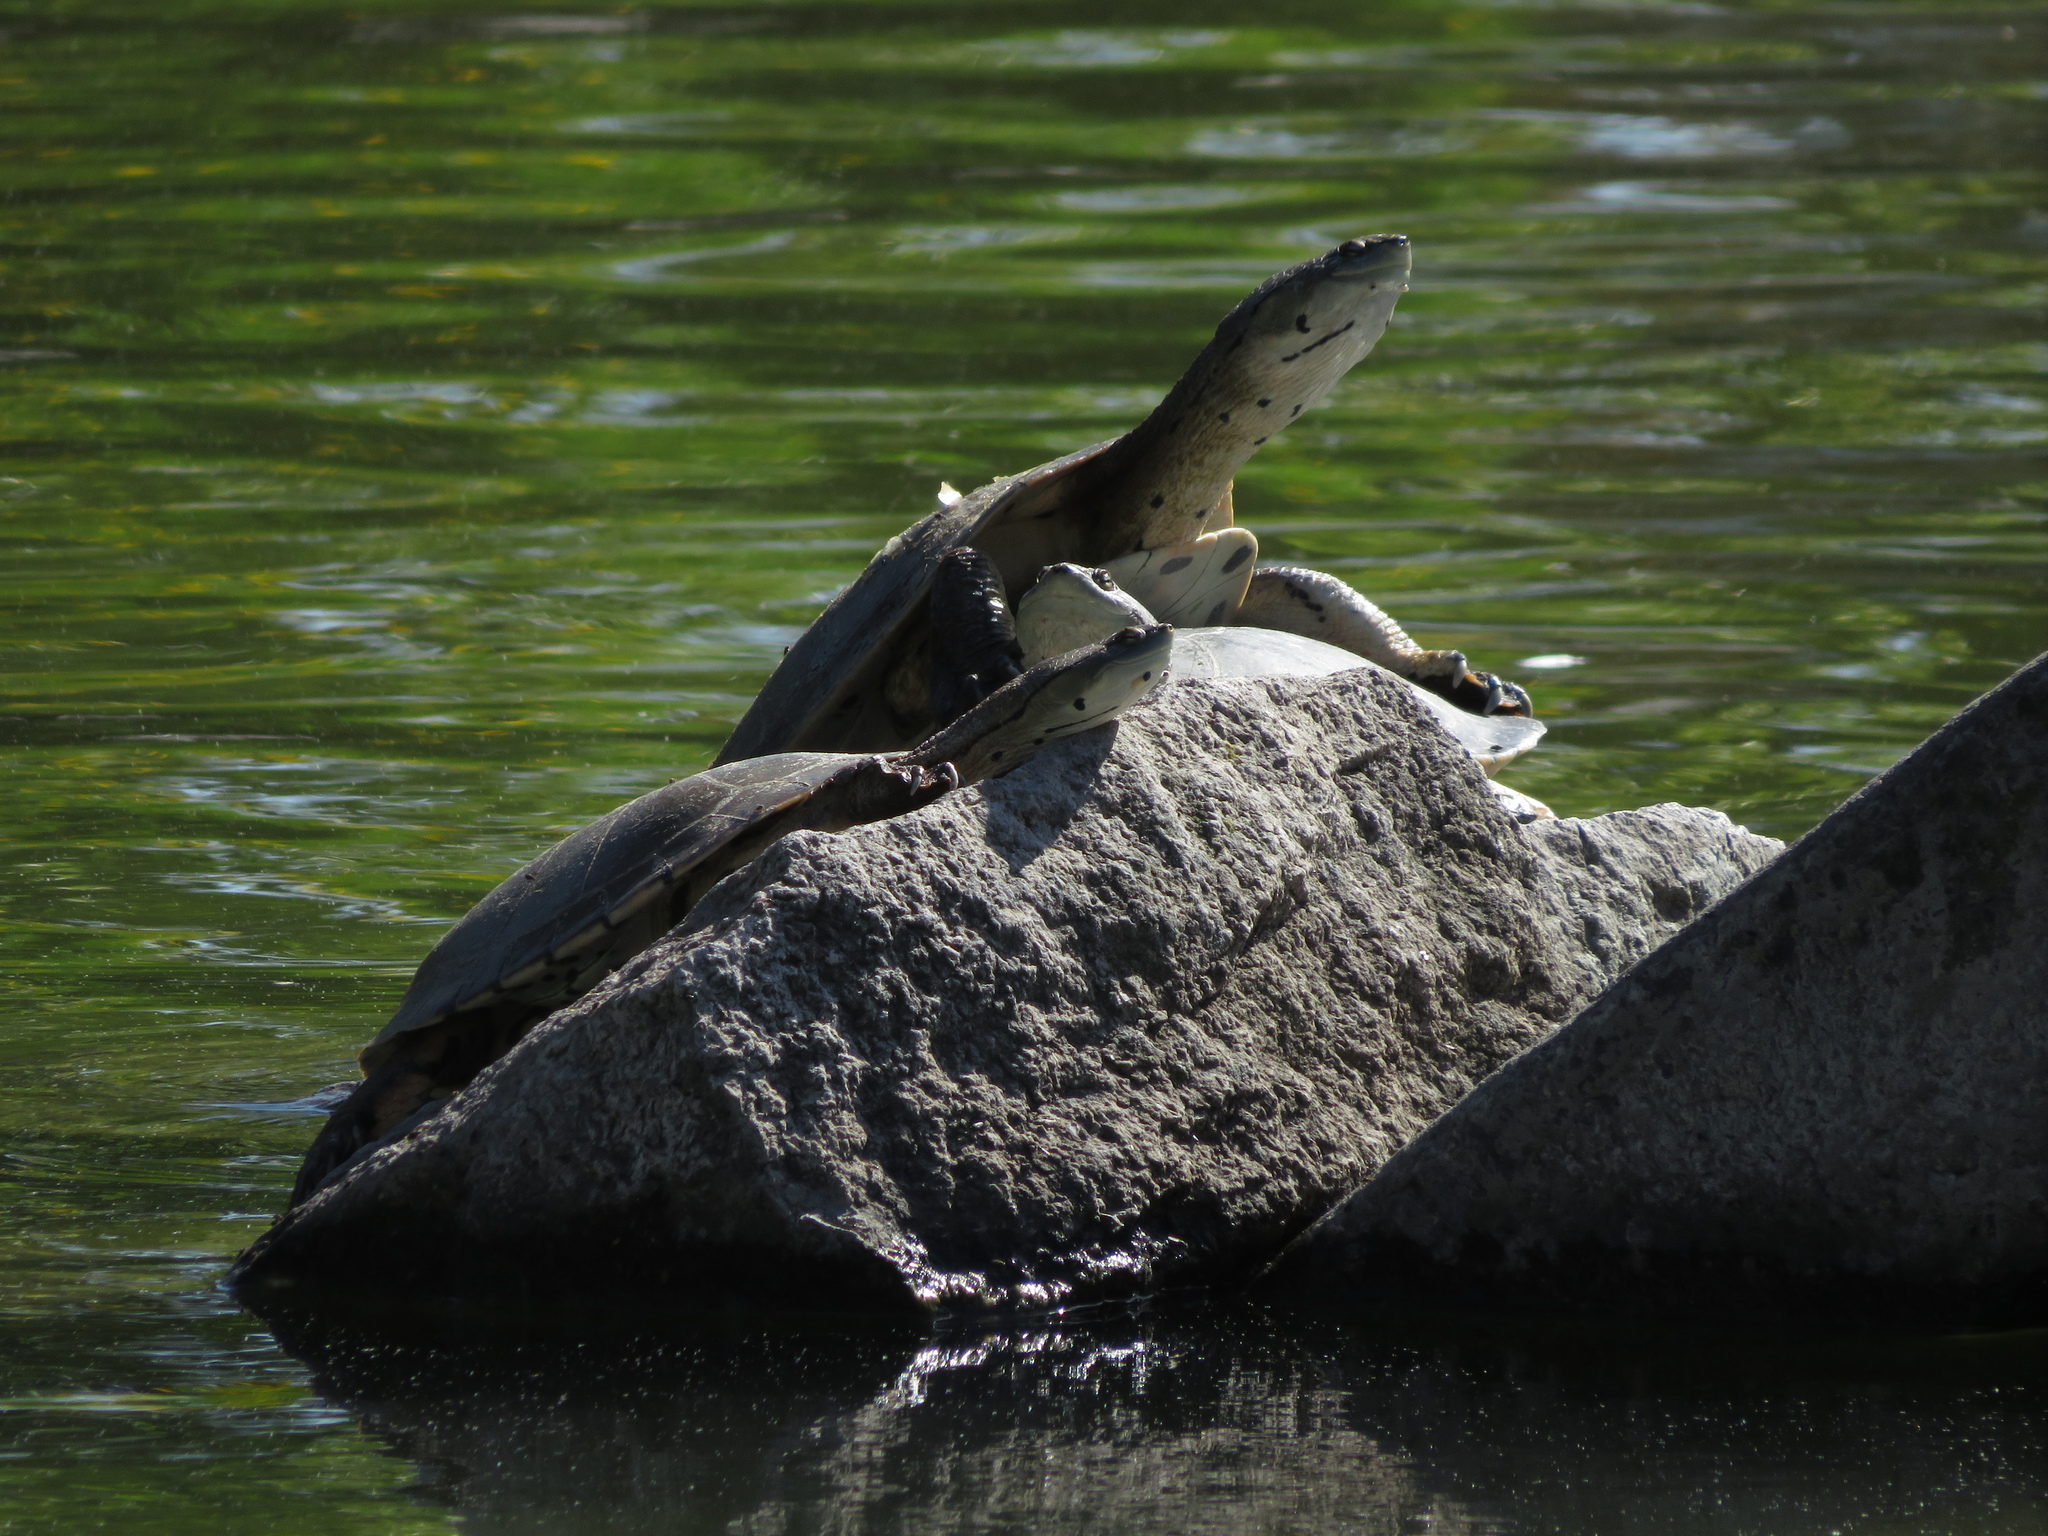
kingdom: Animalia
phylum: Chordata
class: Testudines
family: Chelidae
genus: Phrynops
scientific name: Phrynops hilarii
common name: Side-necked turtle of saint hillaire
